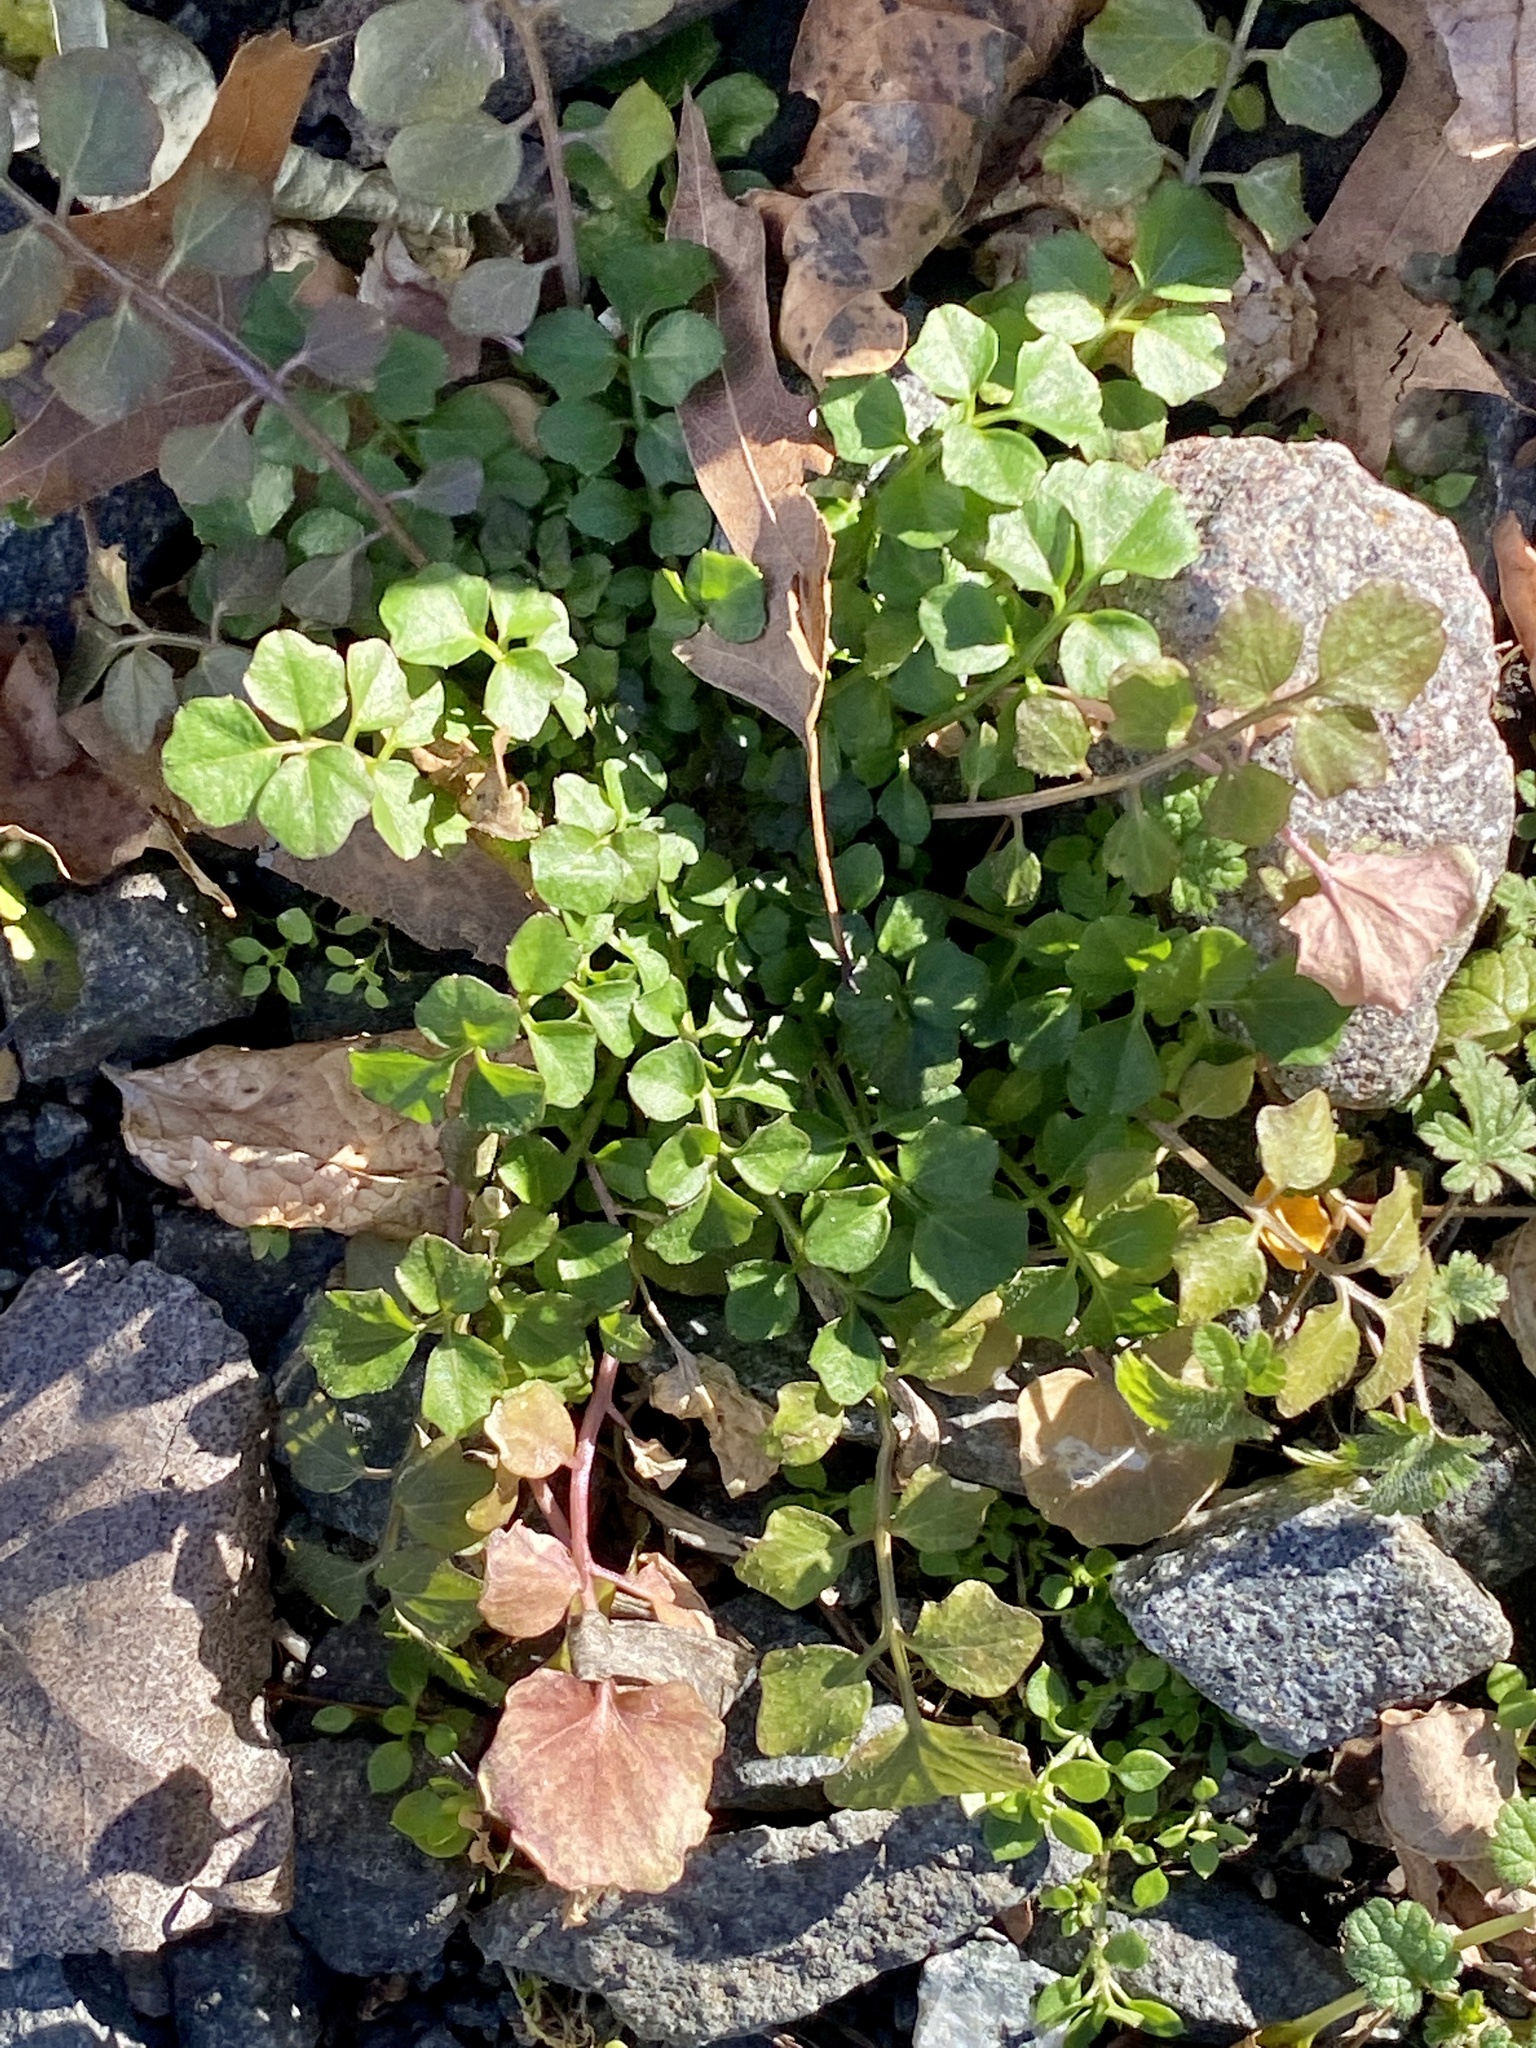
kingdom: Plantae
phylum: Tracheophyta
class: Magnoliopsida
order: Brassicales
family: Brassicaceae
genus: Cardamine
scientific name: Cardamine hirsuta
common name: Hairy bittercress
